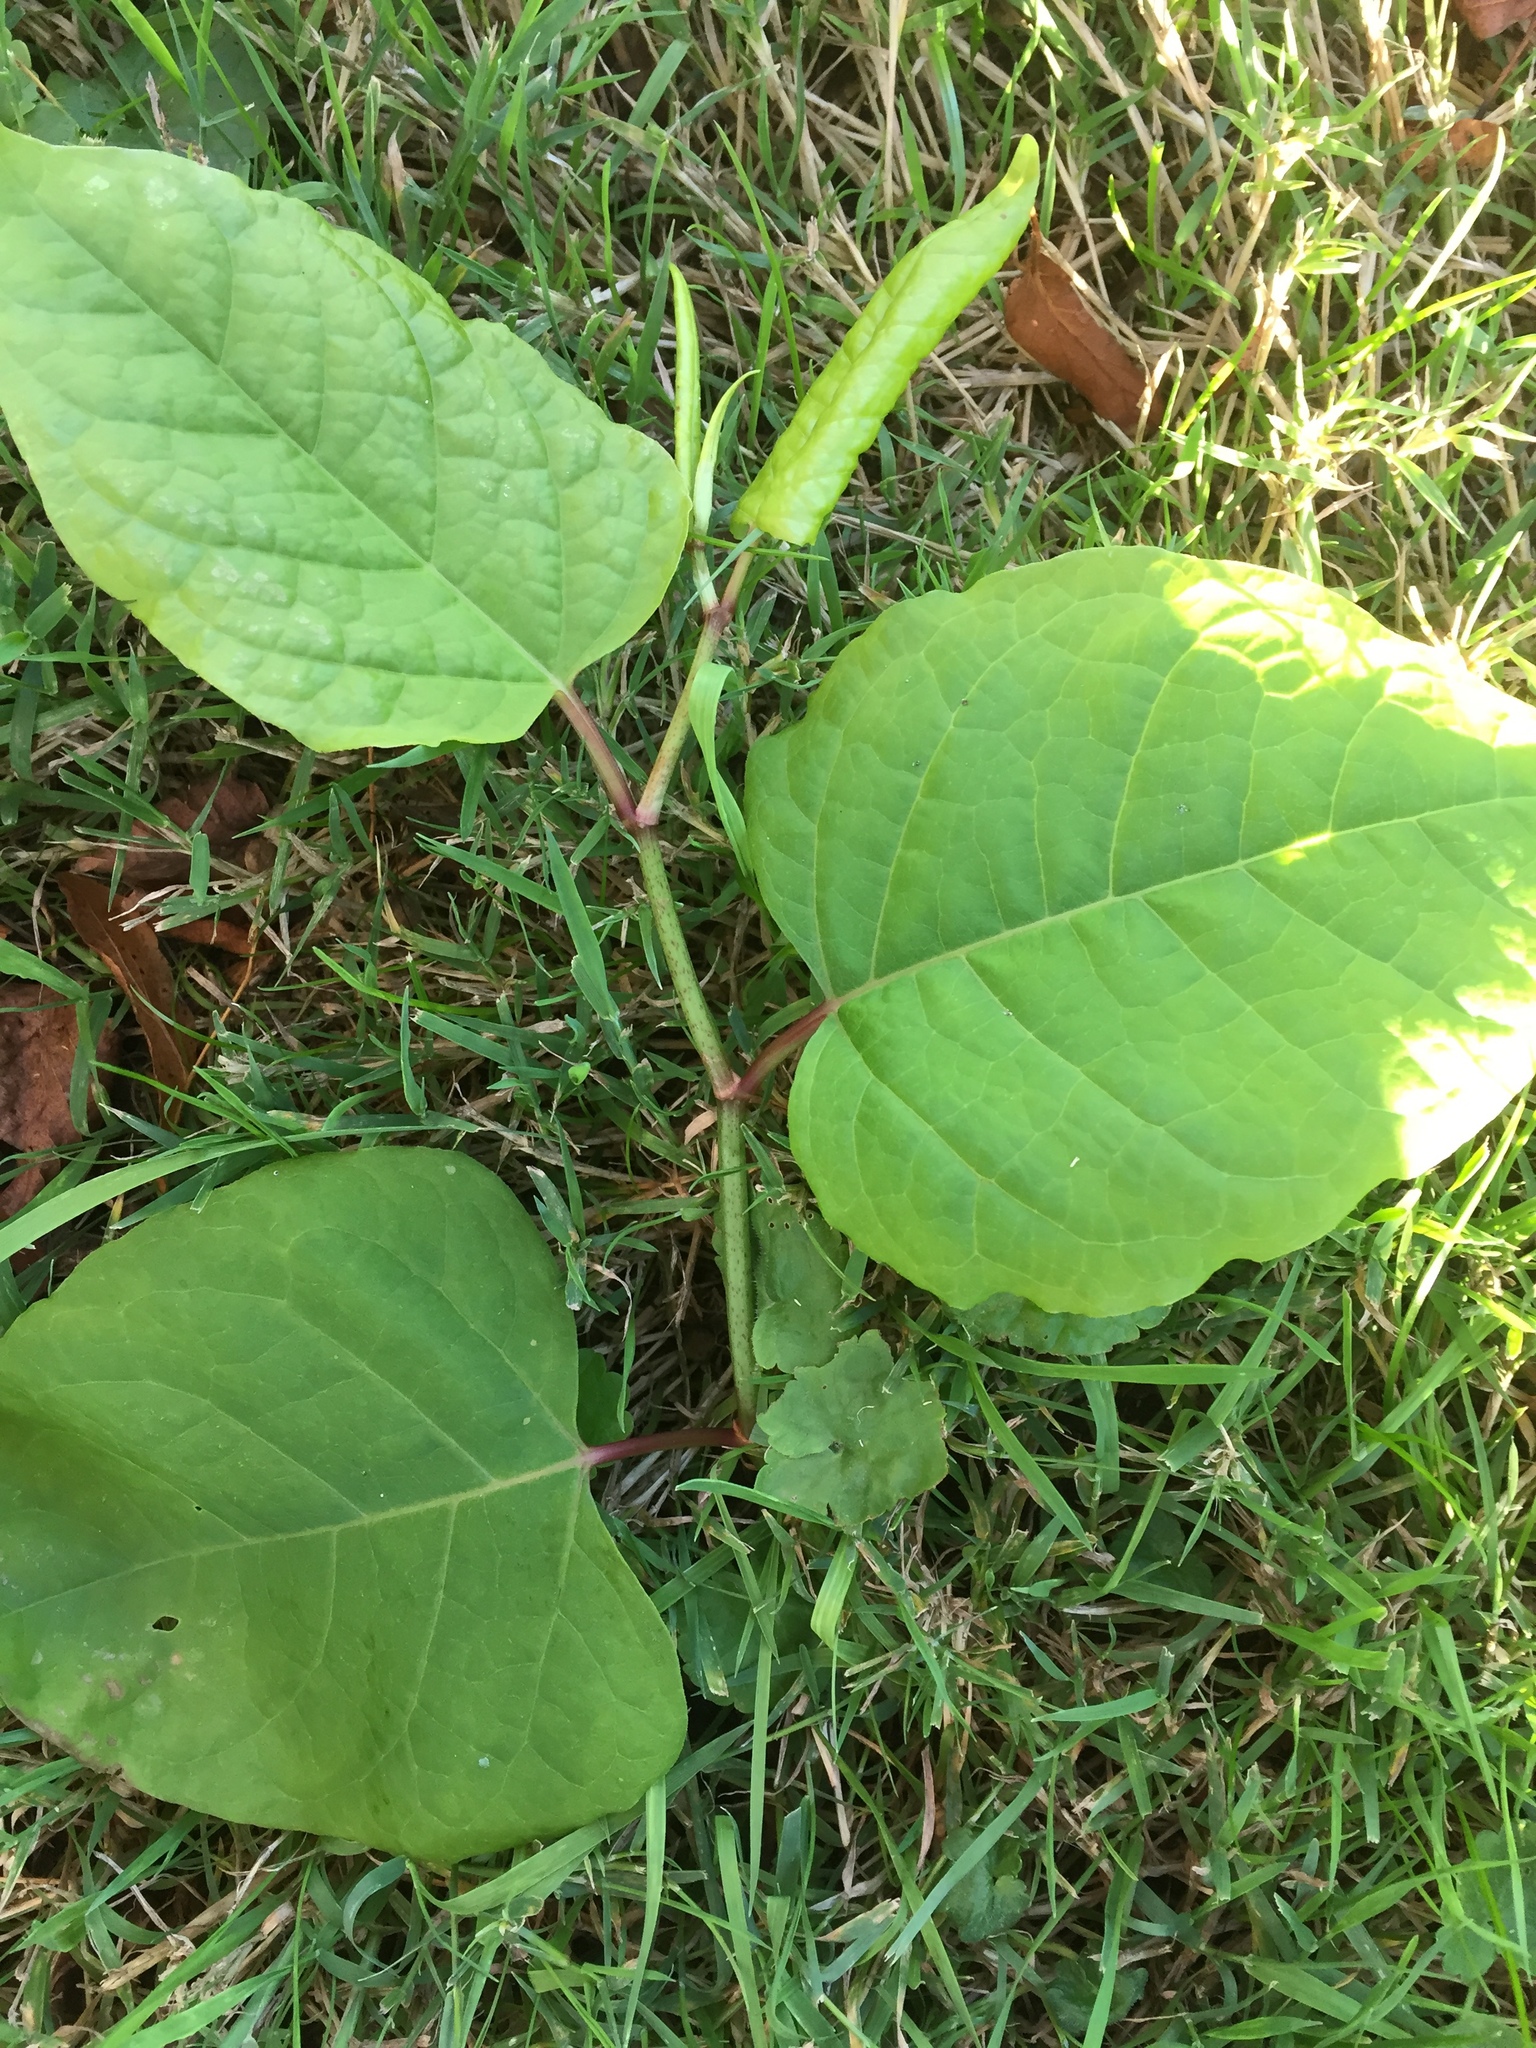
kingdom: Plantae
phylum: Tracheophyta
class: Magnoliopsida
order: Caryophyllales
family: Polygonaceae
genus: Reynoutria
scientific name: Reynoutria japonica
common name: Japanese knotweed
